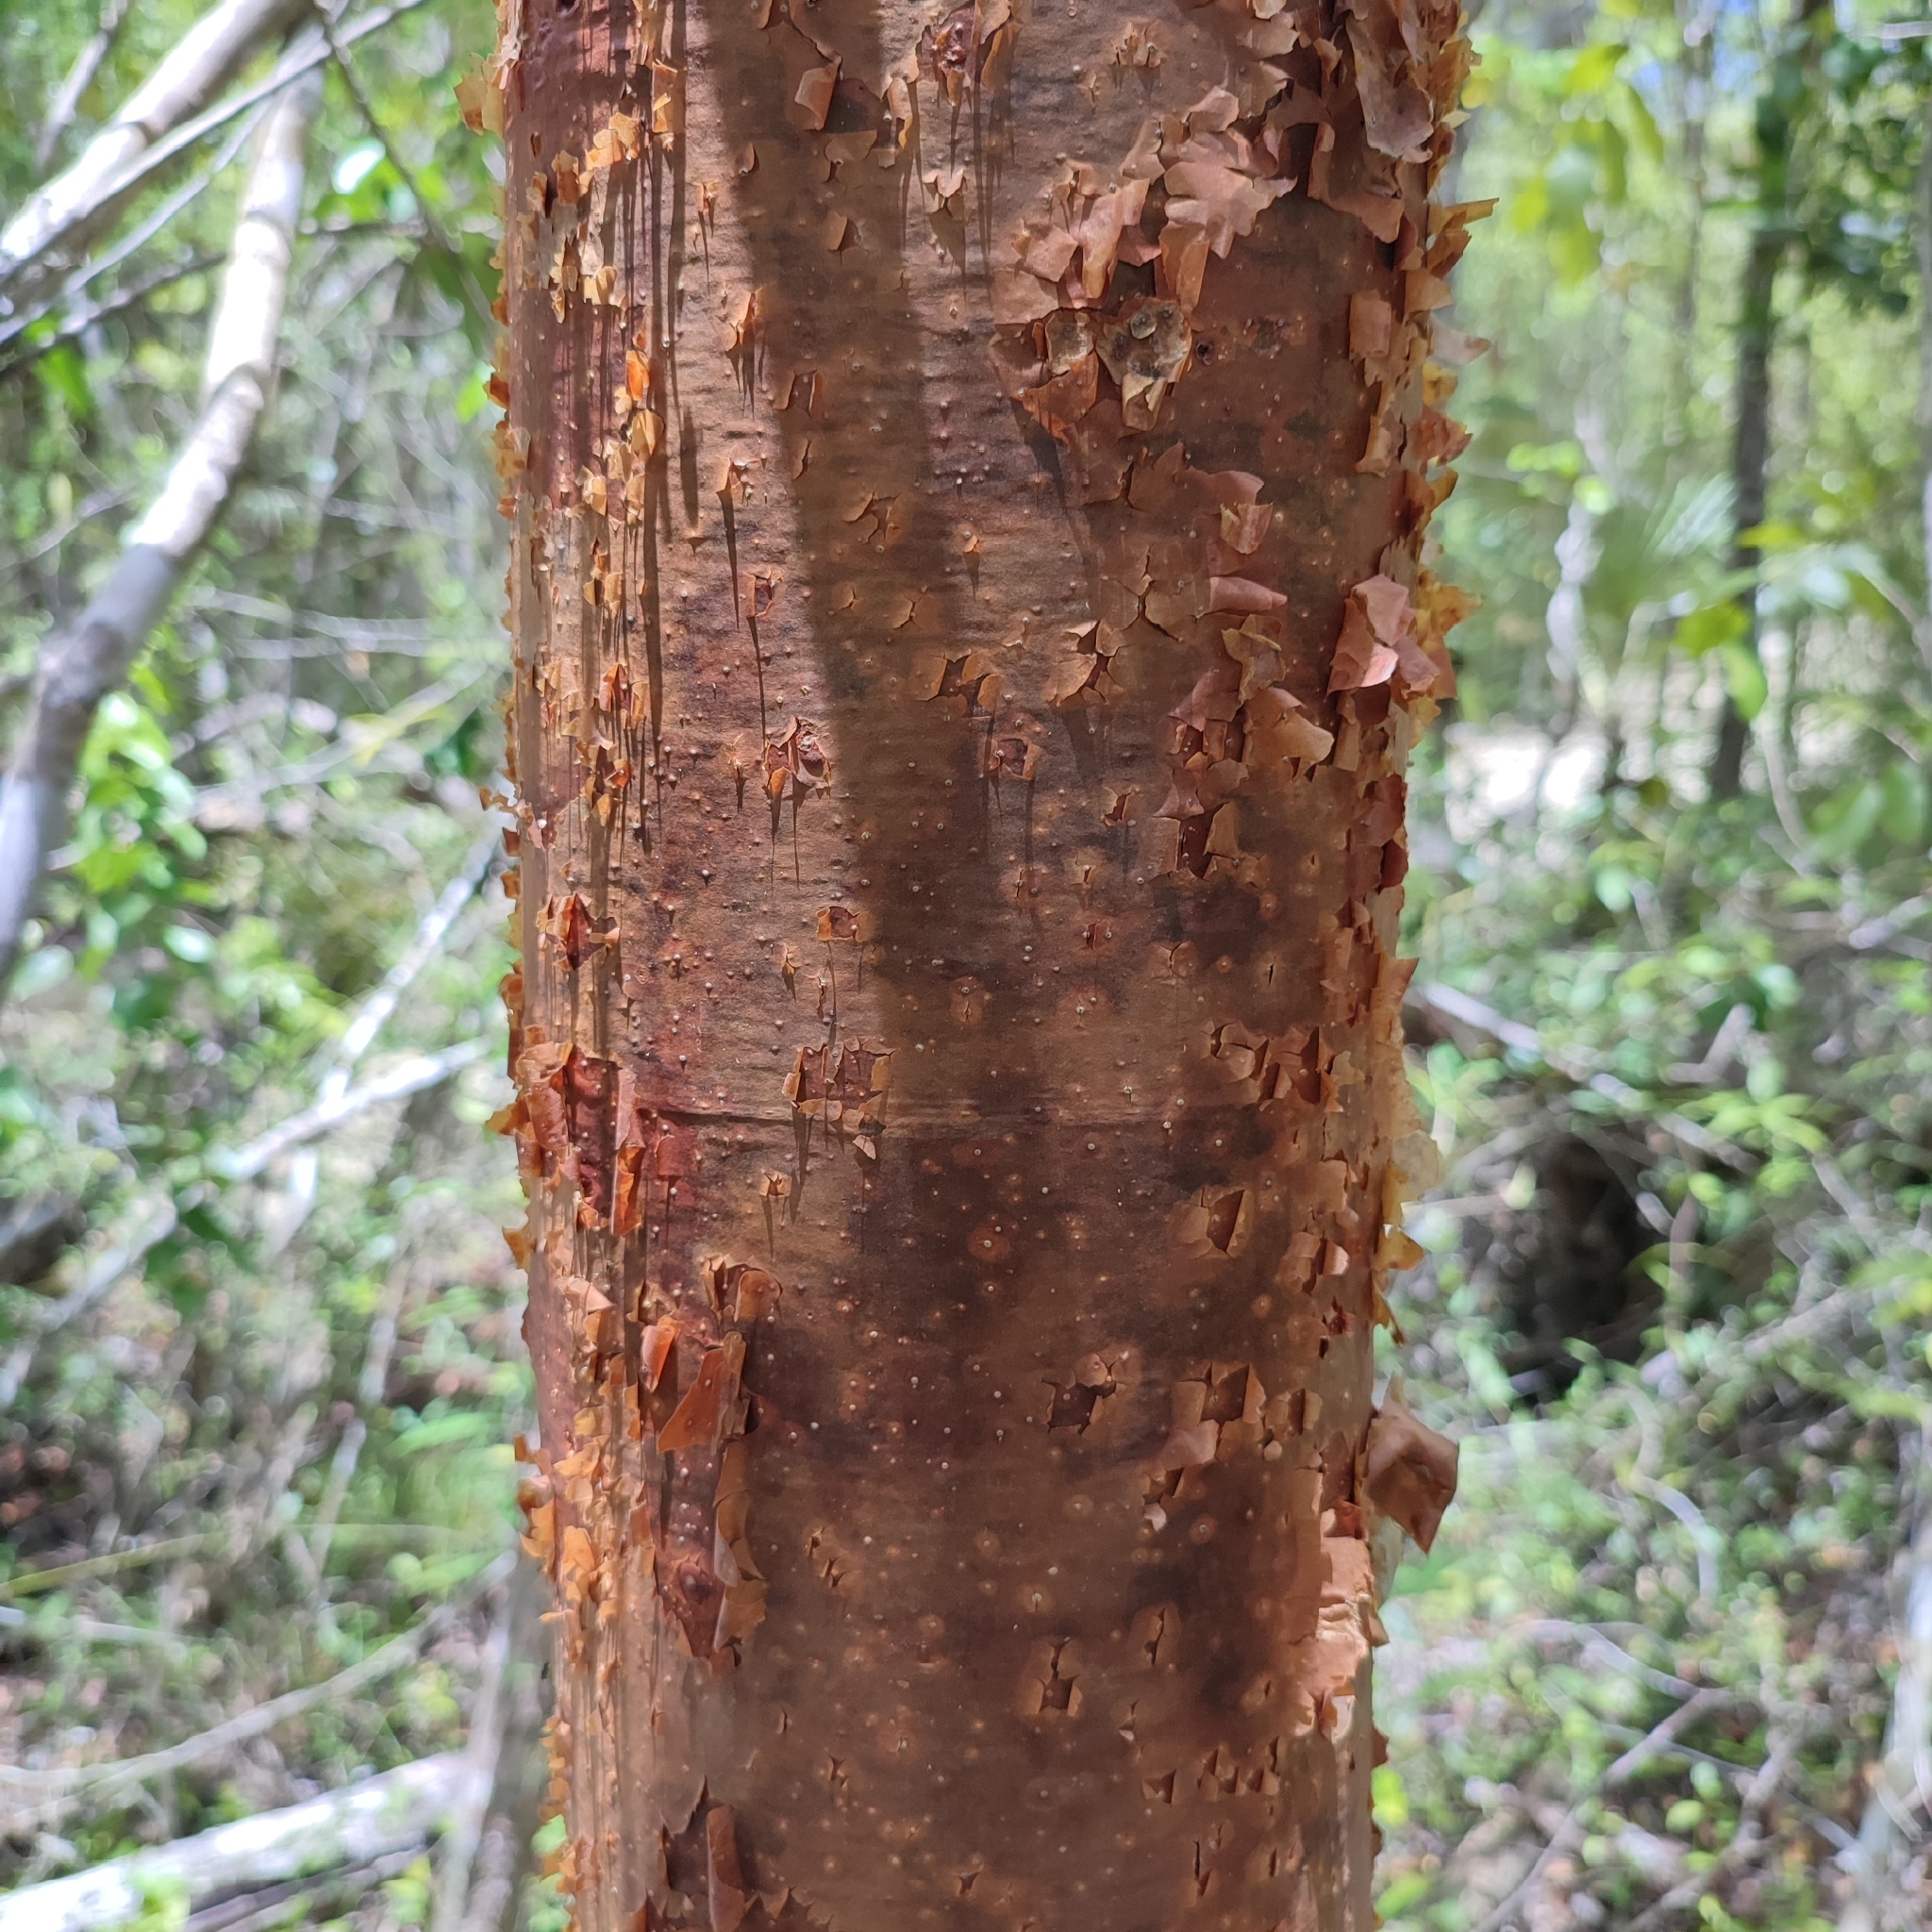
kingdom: Plantae
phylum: Tracheophyta
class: Magnoliopsida
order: Sapindales
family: Burseraceae
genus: Bursera
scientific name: Bursera simaruba
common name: Turpentine tree
